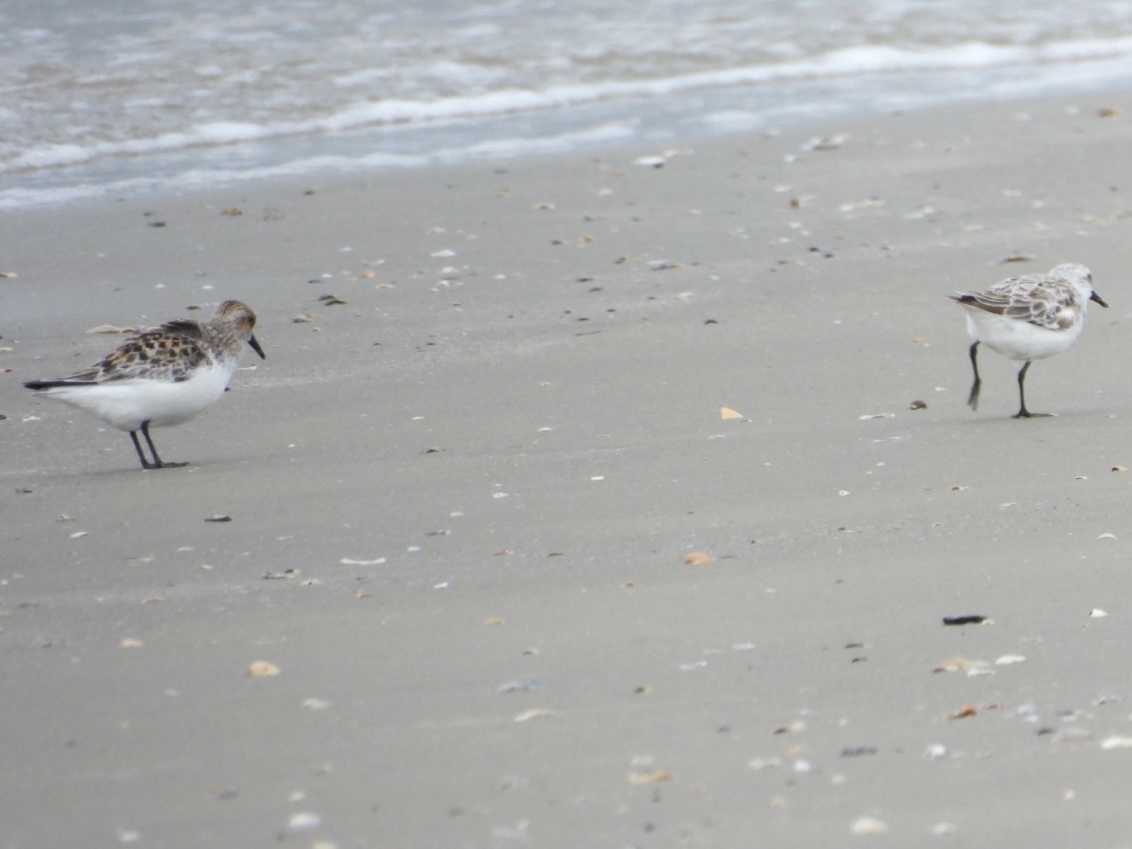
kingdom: Animalia
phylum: Chordata
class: Aves
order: Charadriiformes
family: Scolopacidae
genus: Calidris
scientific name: Calidris alba
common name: Sanderling
